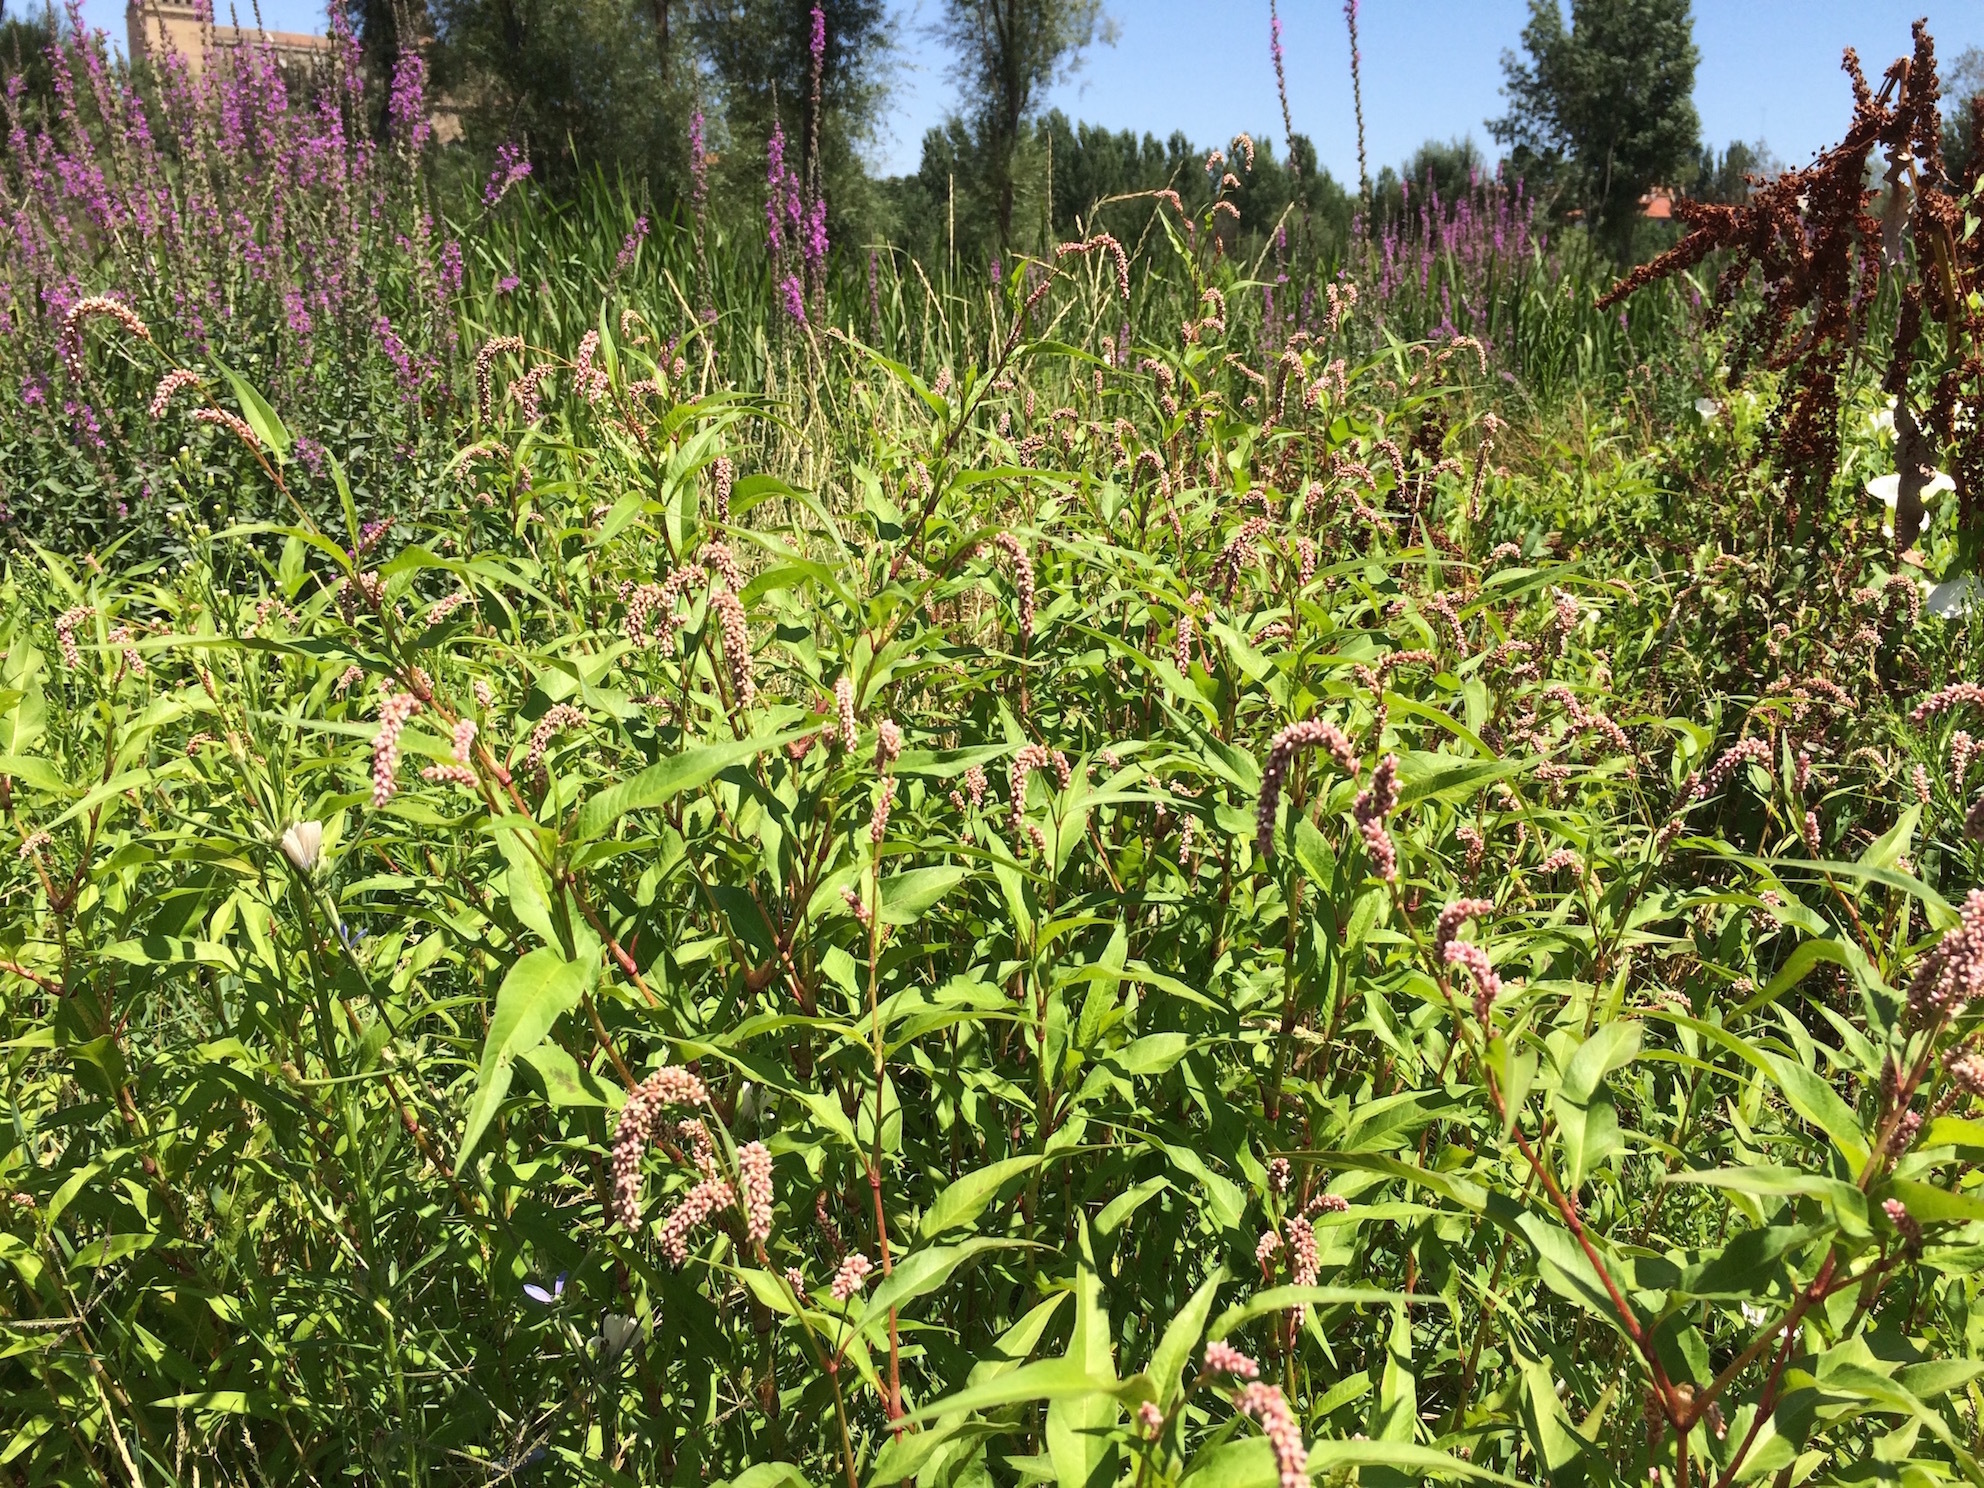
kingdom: Plantae
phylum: Tracheophyta
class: Magnoliopsida
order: Caryophyllales
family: Polygonaceae
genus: Persicaria
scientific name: Persicaria lapathifolia
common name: Curlytop knotweed
